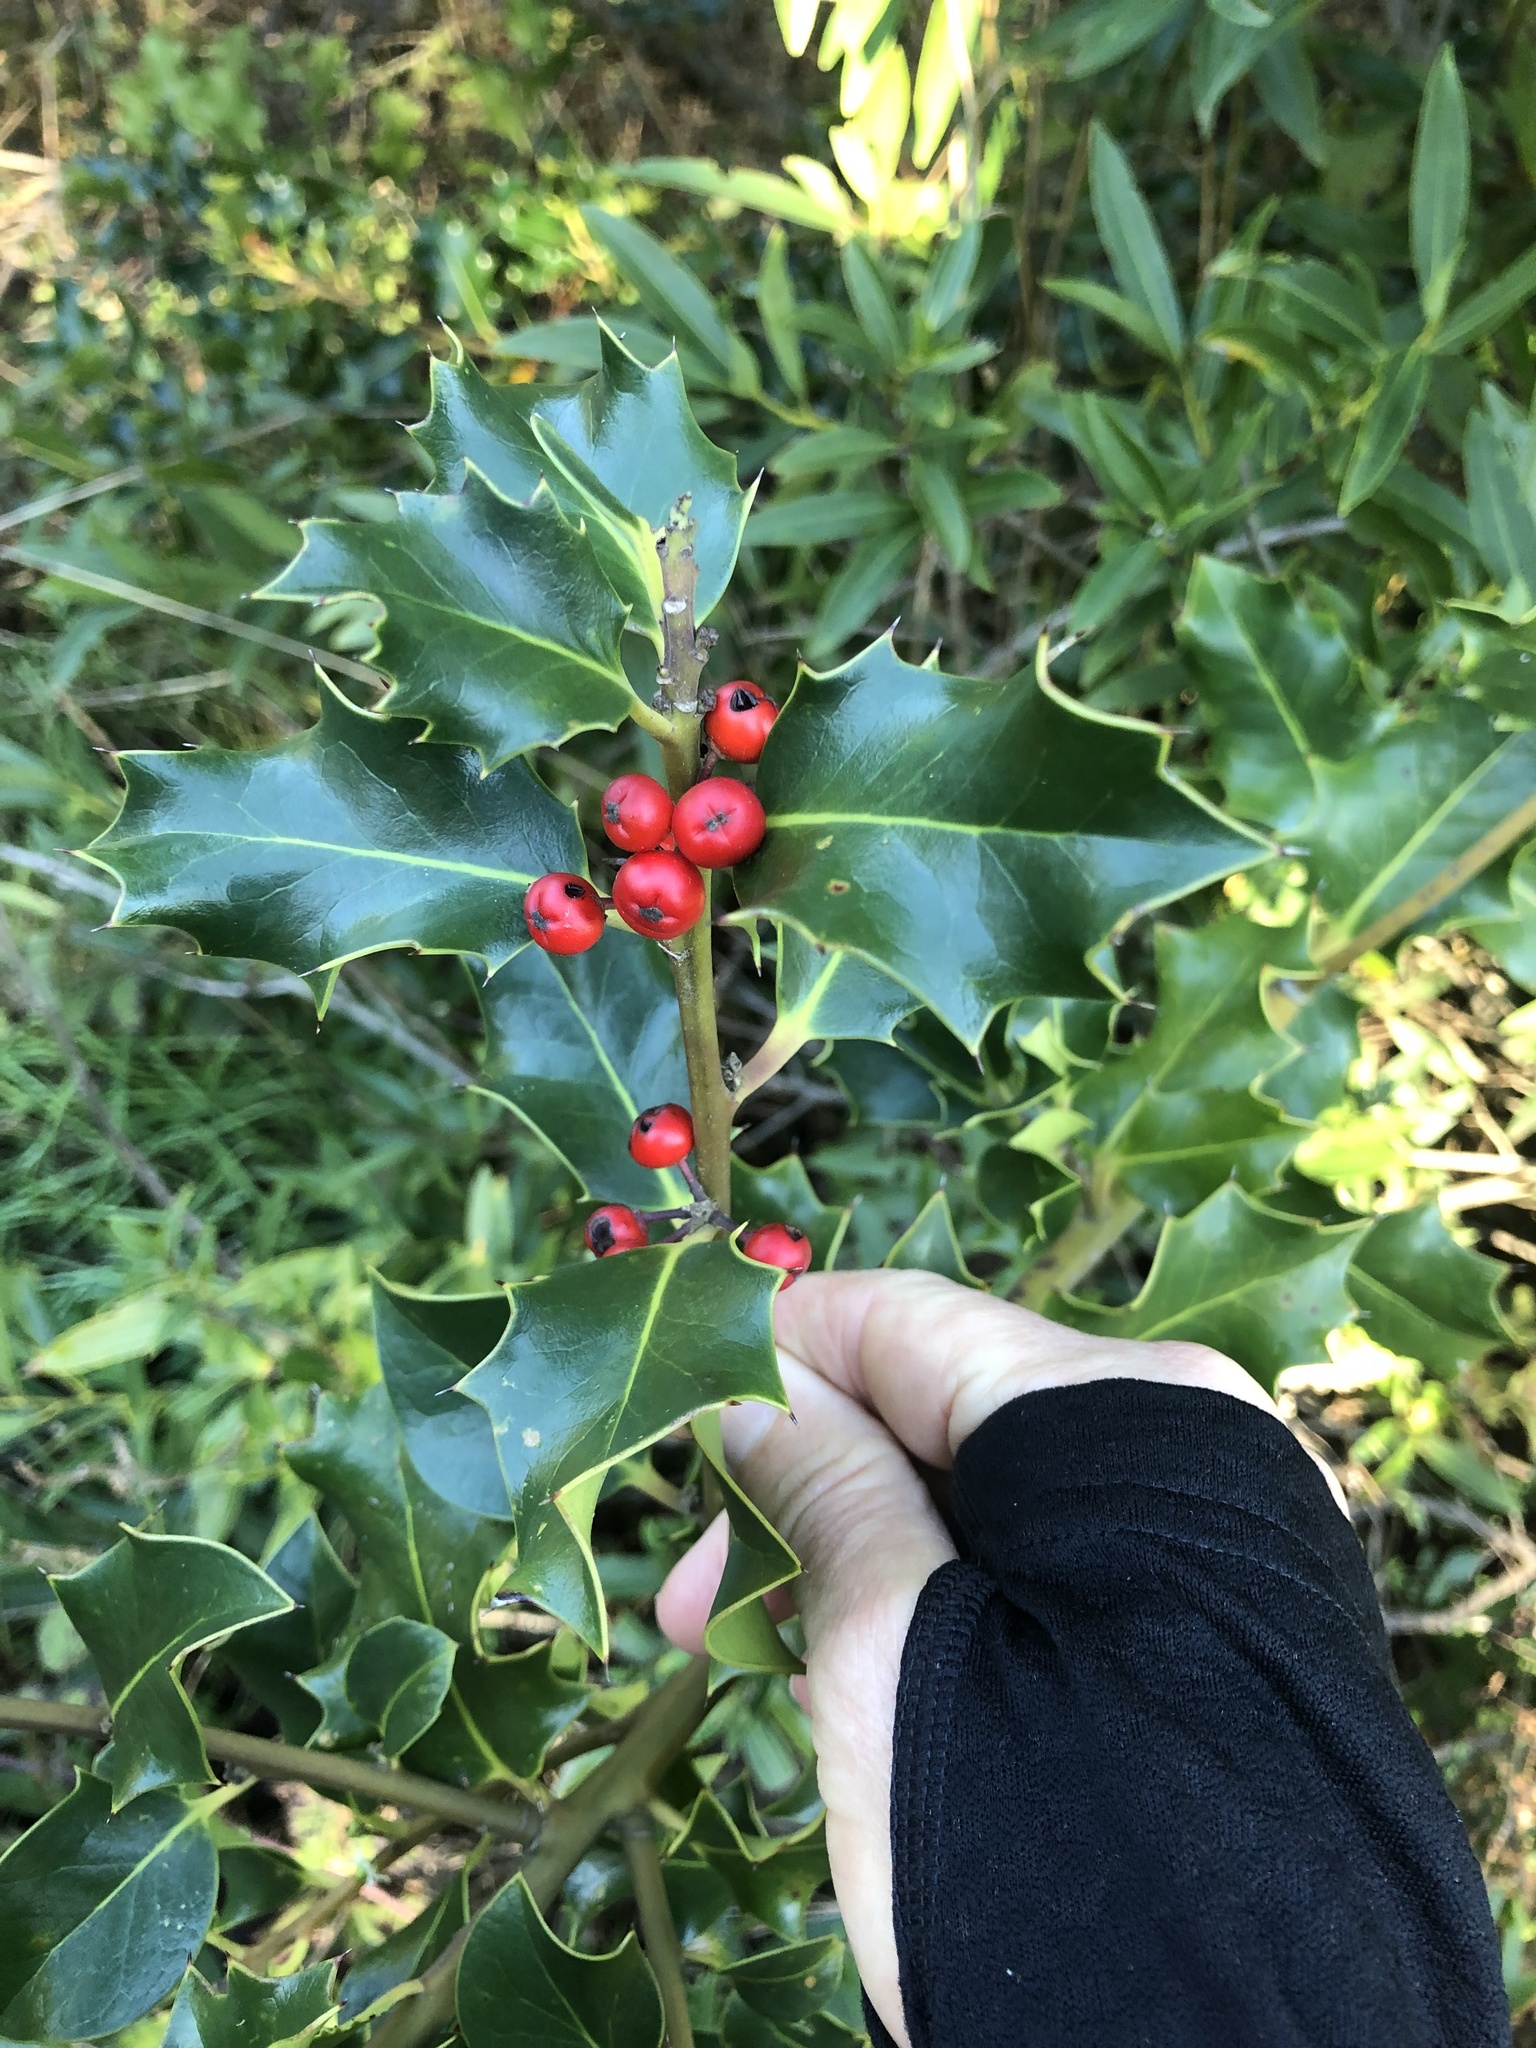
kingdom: Plantae
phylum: Tracheophyta
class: Magnoliopsida
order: Aquifoliales
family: Aquifoliaceae
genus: Ilex
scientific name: Ilex aquifolium
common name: English holly
